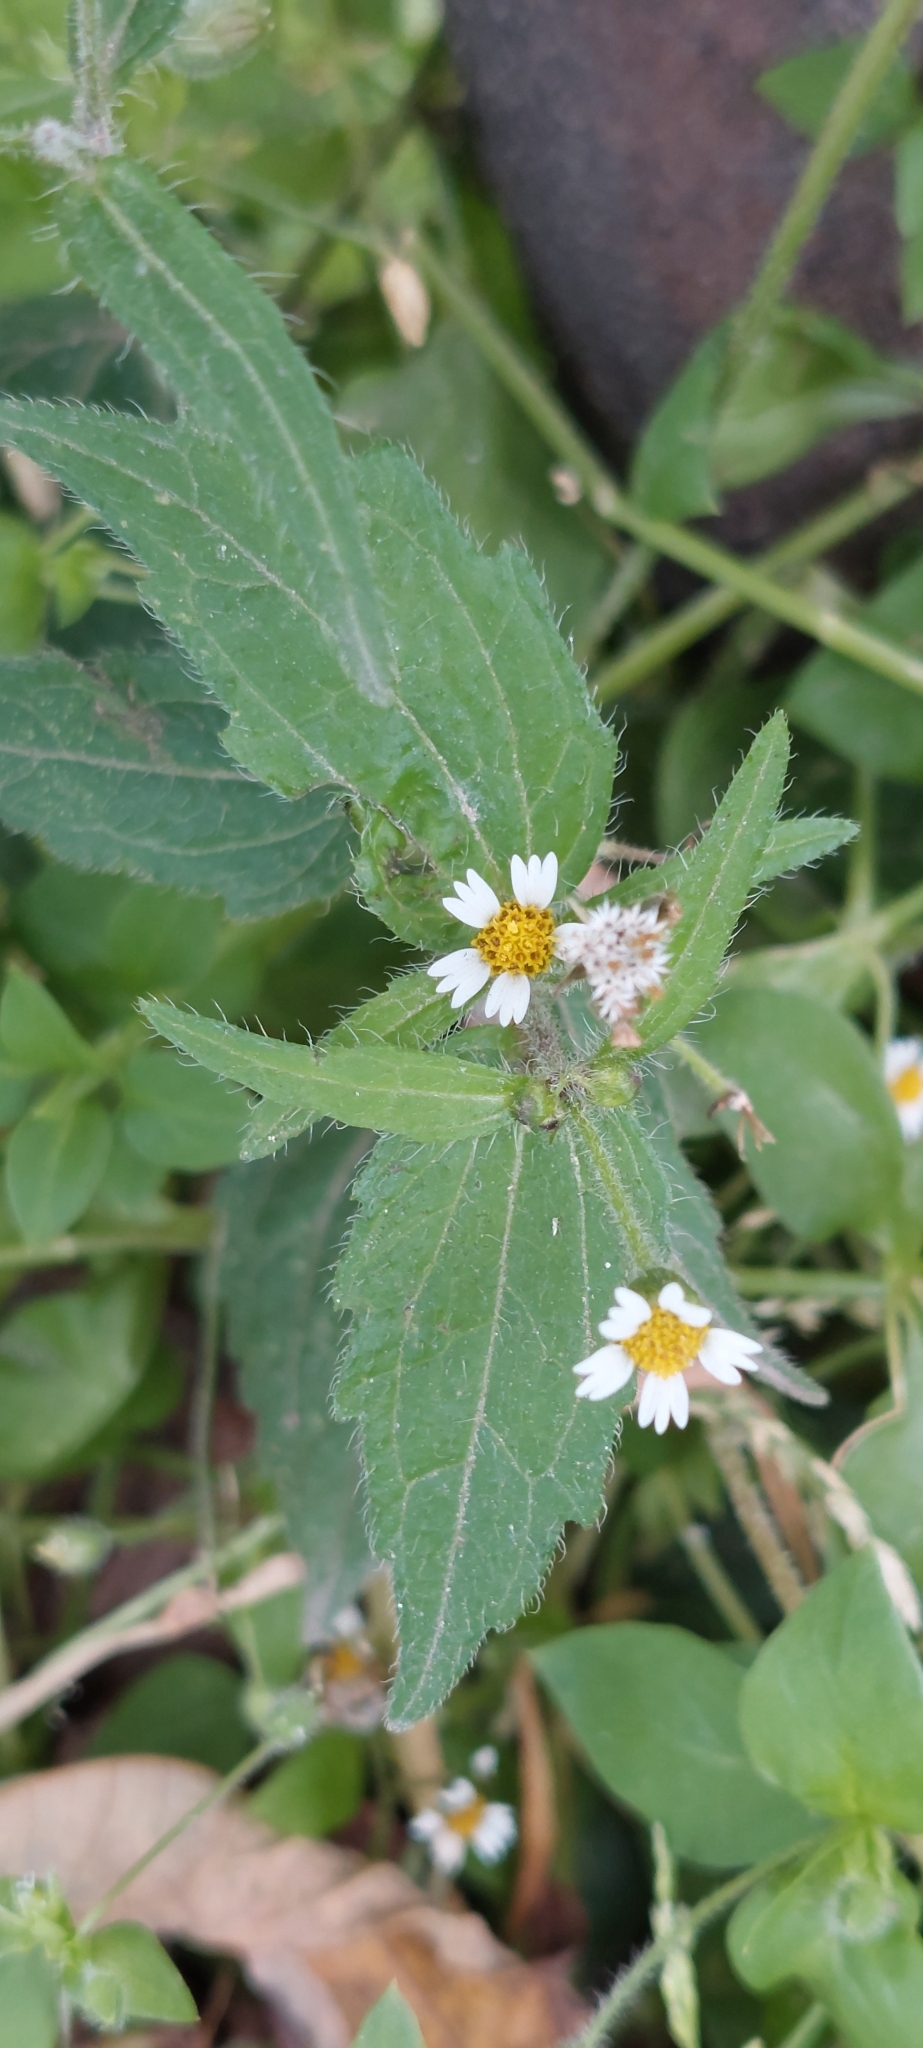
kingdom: Plantae
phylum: Tracheophyta
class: Magnoliopsida
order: Asterales
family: Asteraceae
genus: Galinsoga
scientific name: Galinsoga quadriradiata
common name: Shaggy soldier
